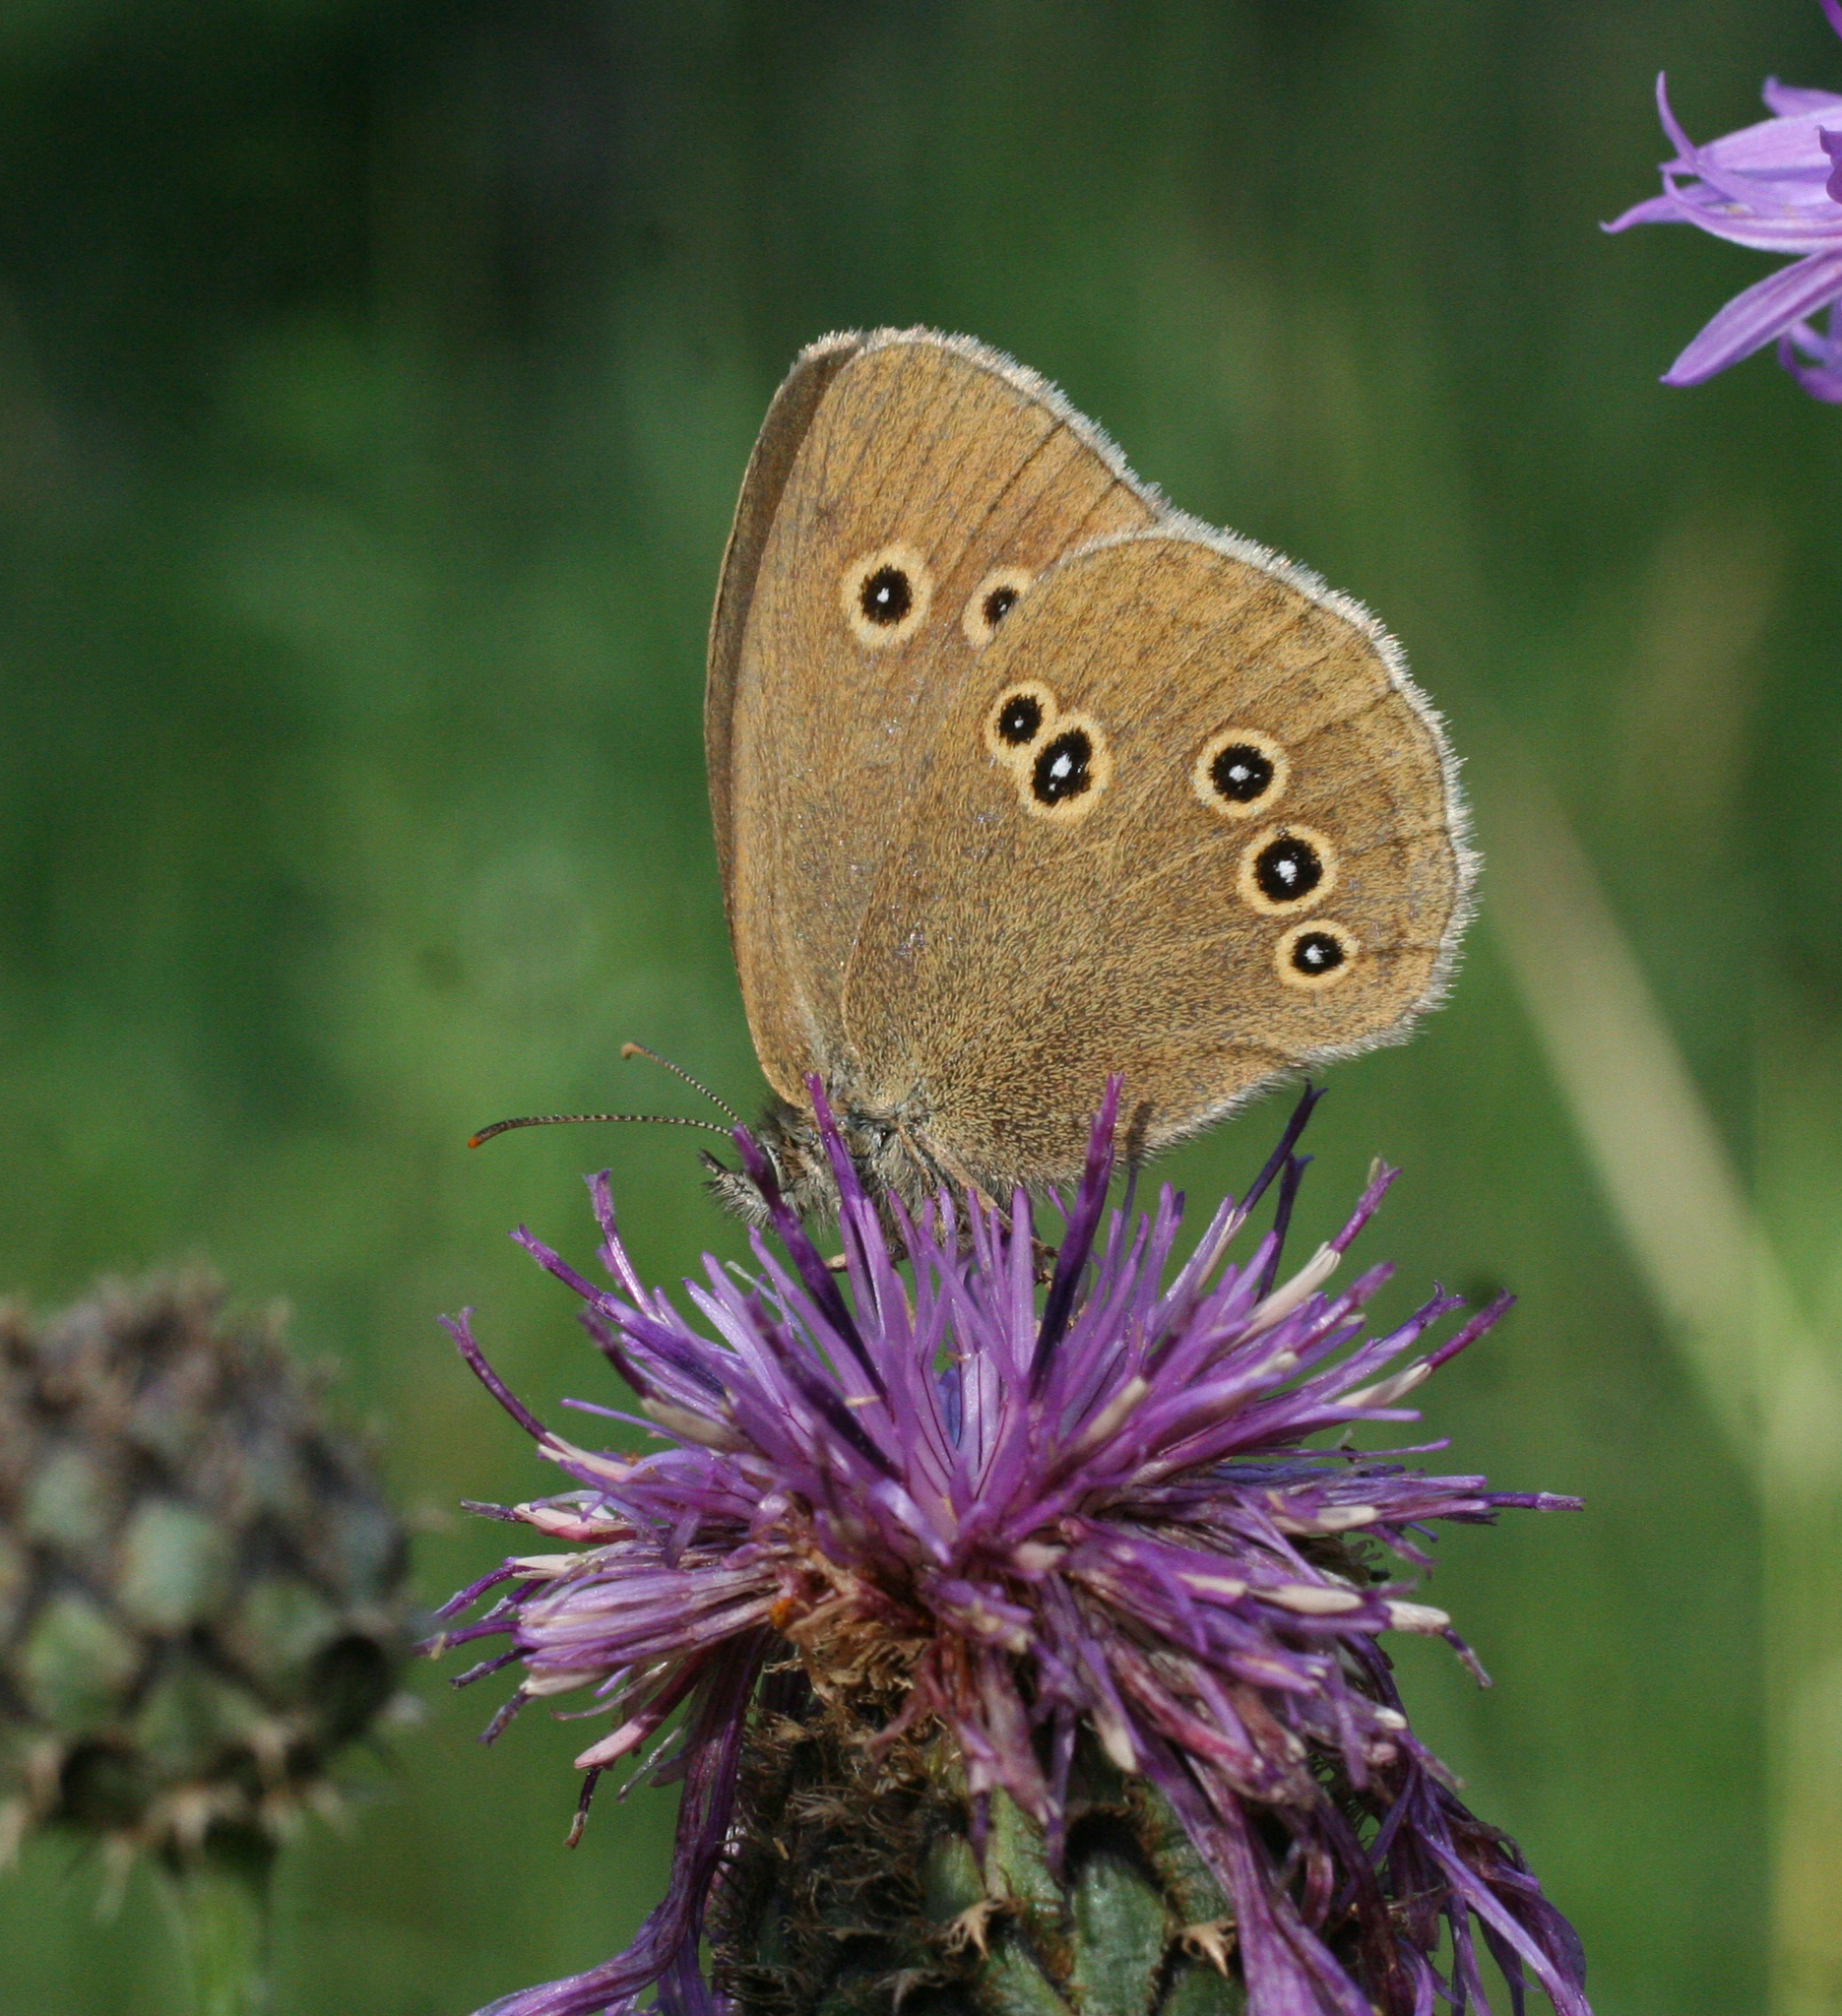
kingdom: Animalia
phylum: Arthropoda
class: Insecta
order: Lepidoptera
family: Nymphalidae
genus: Aphantopus
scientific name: Aphantopus hyperantus
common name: Ringlet
